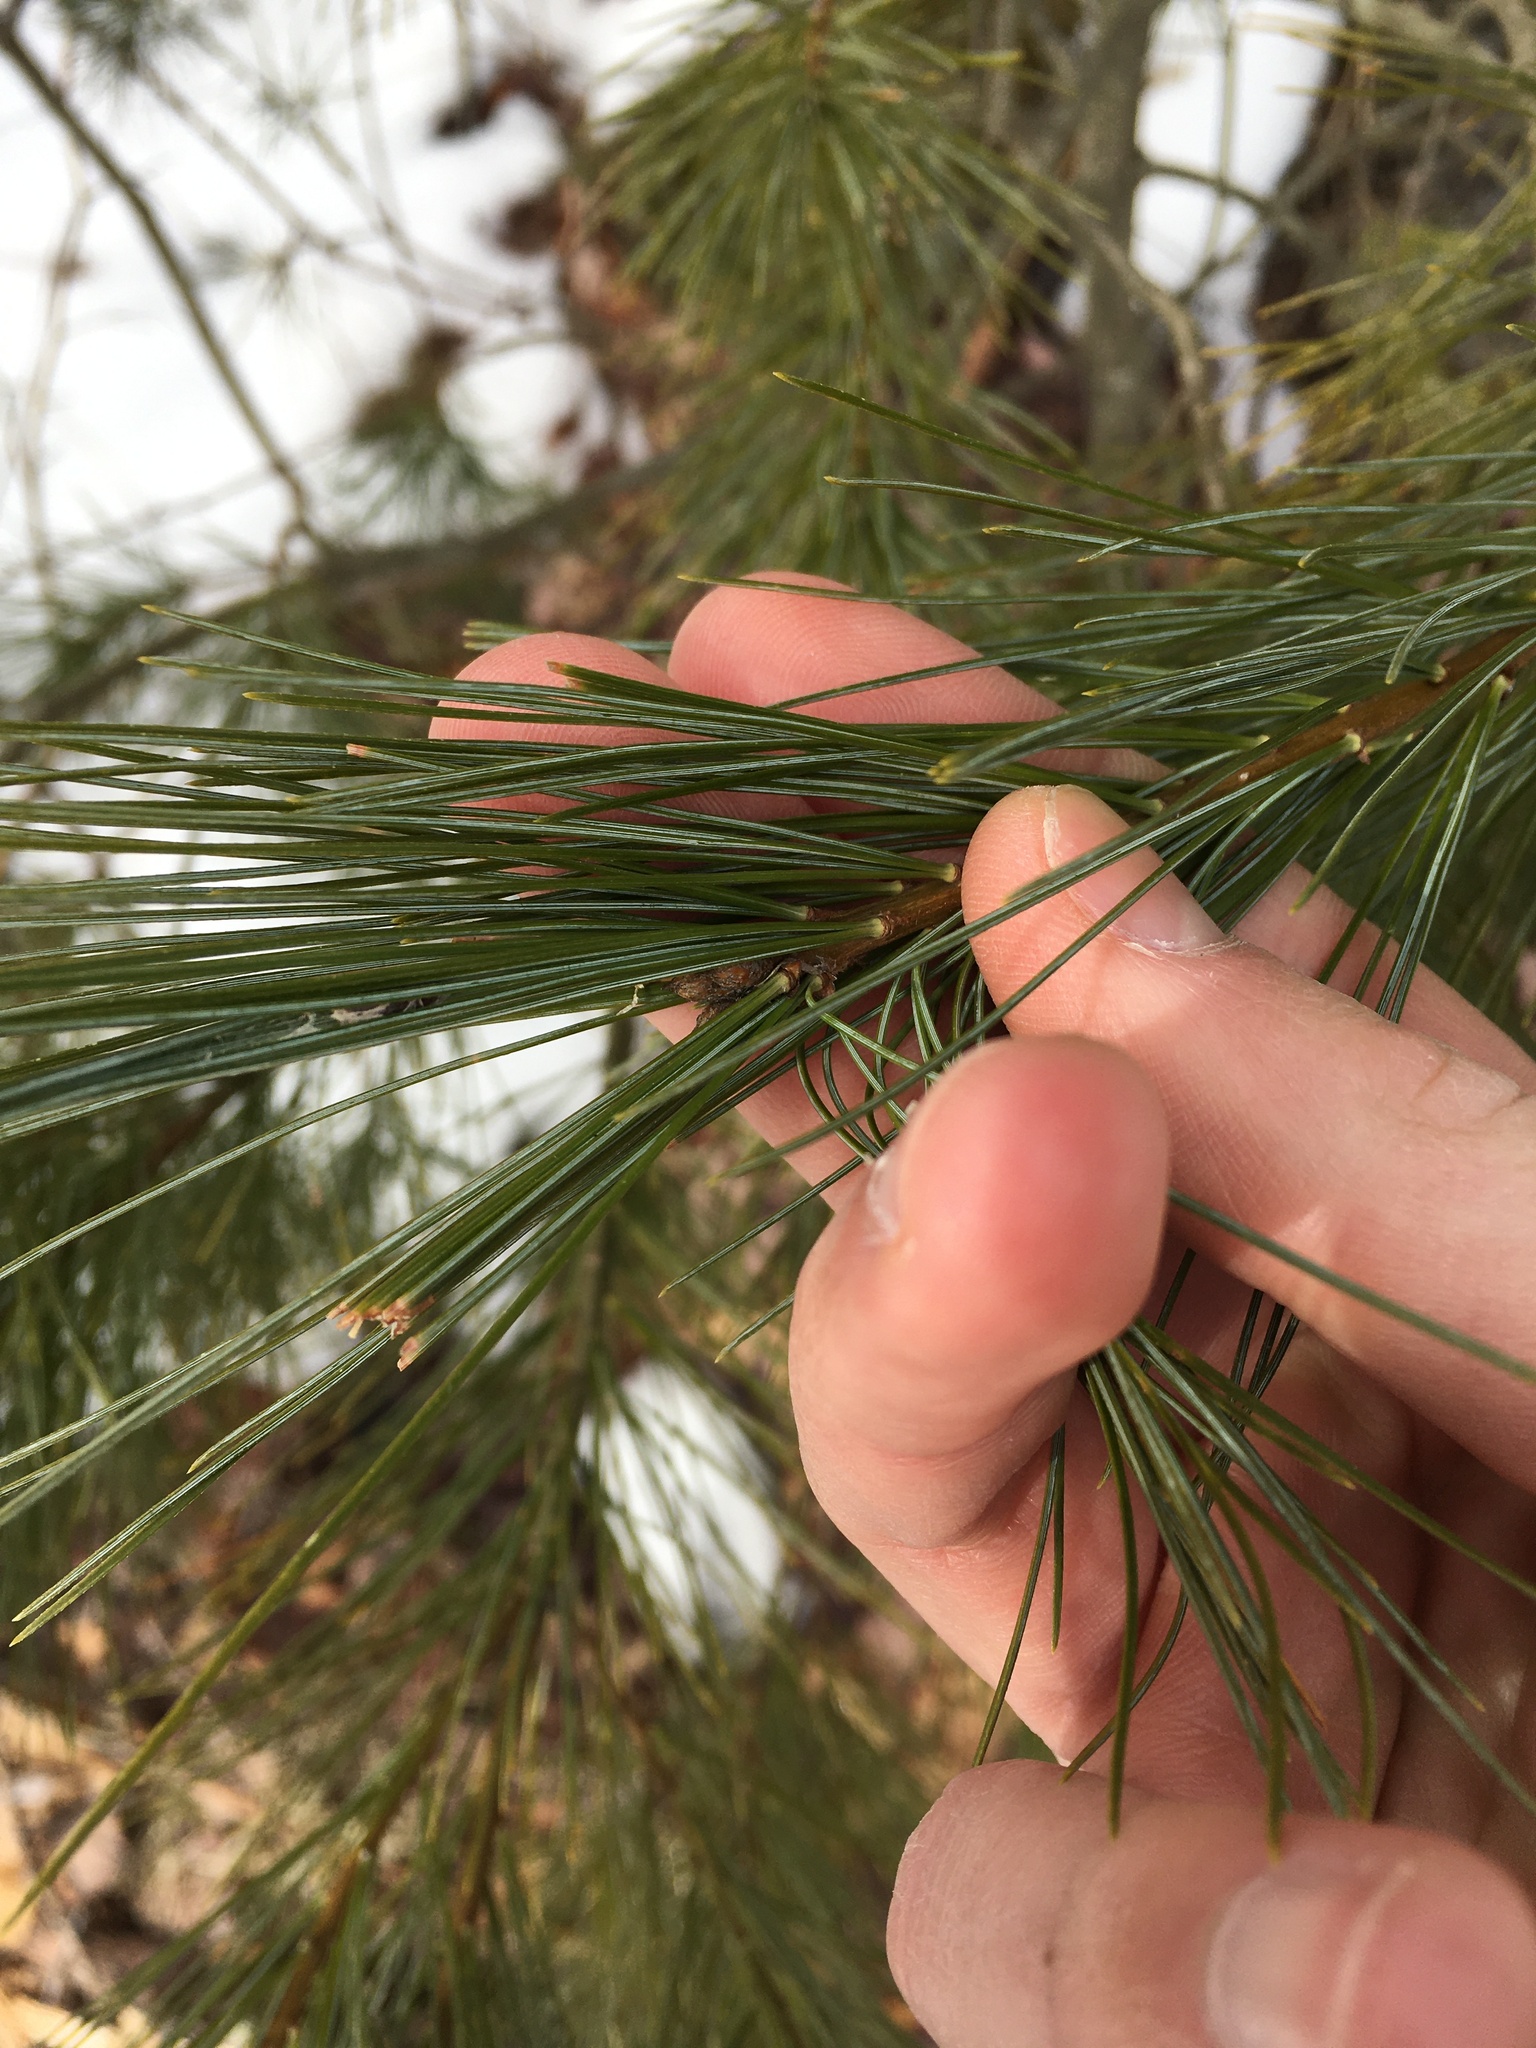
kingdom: Animalia
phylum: Arthropoda
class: Insecta
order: Lepidoptera
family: Tortricidae
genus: Argyrotaenia
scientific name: Argyrotaenia pinatubana
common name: Pine tube moth
